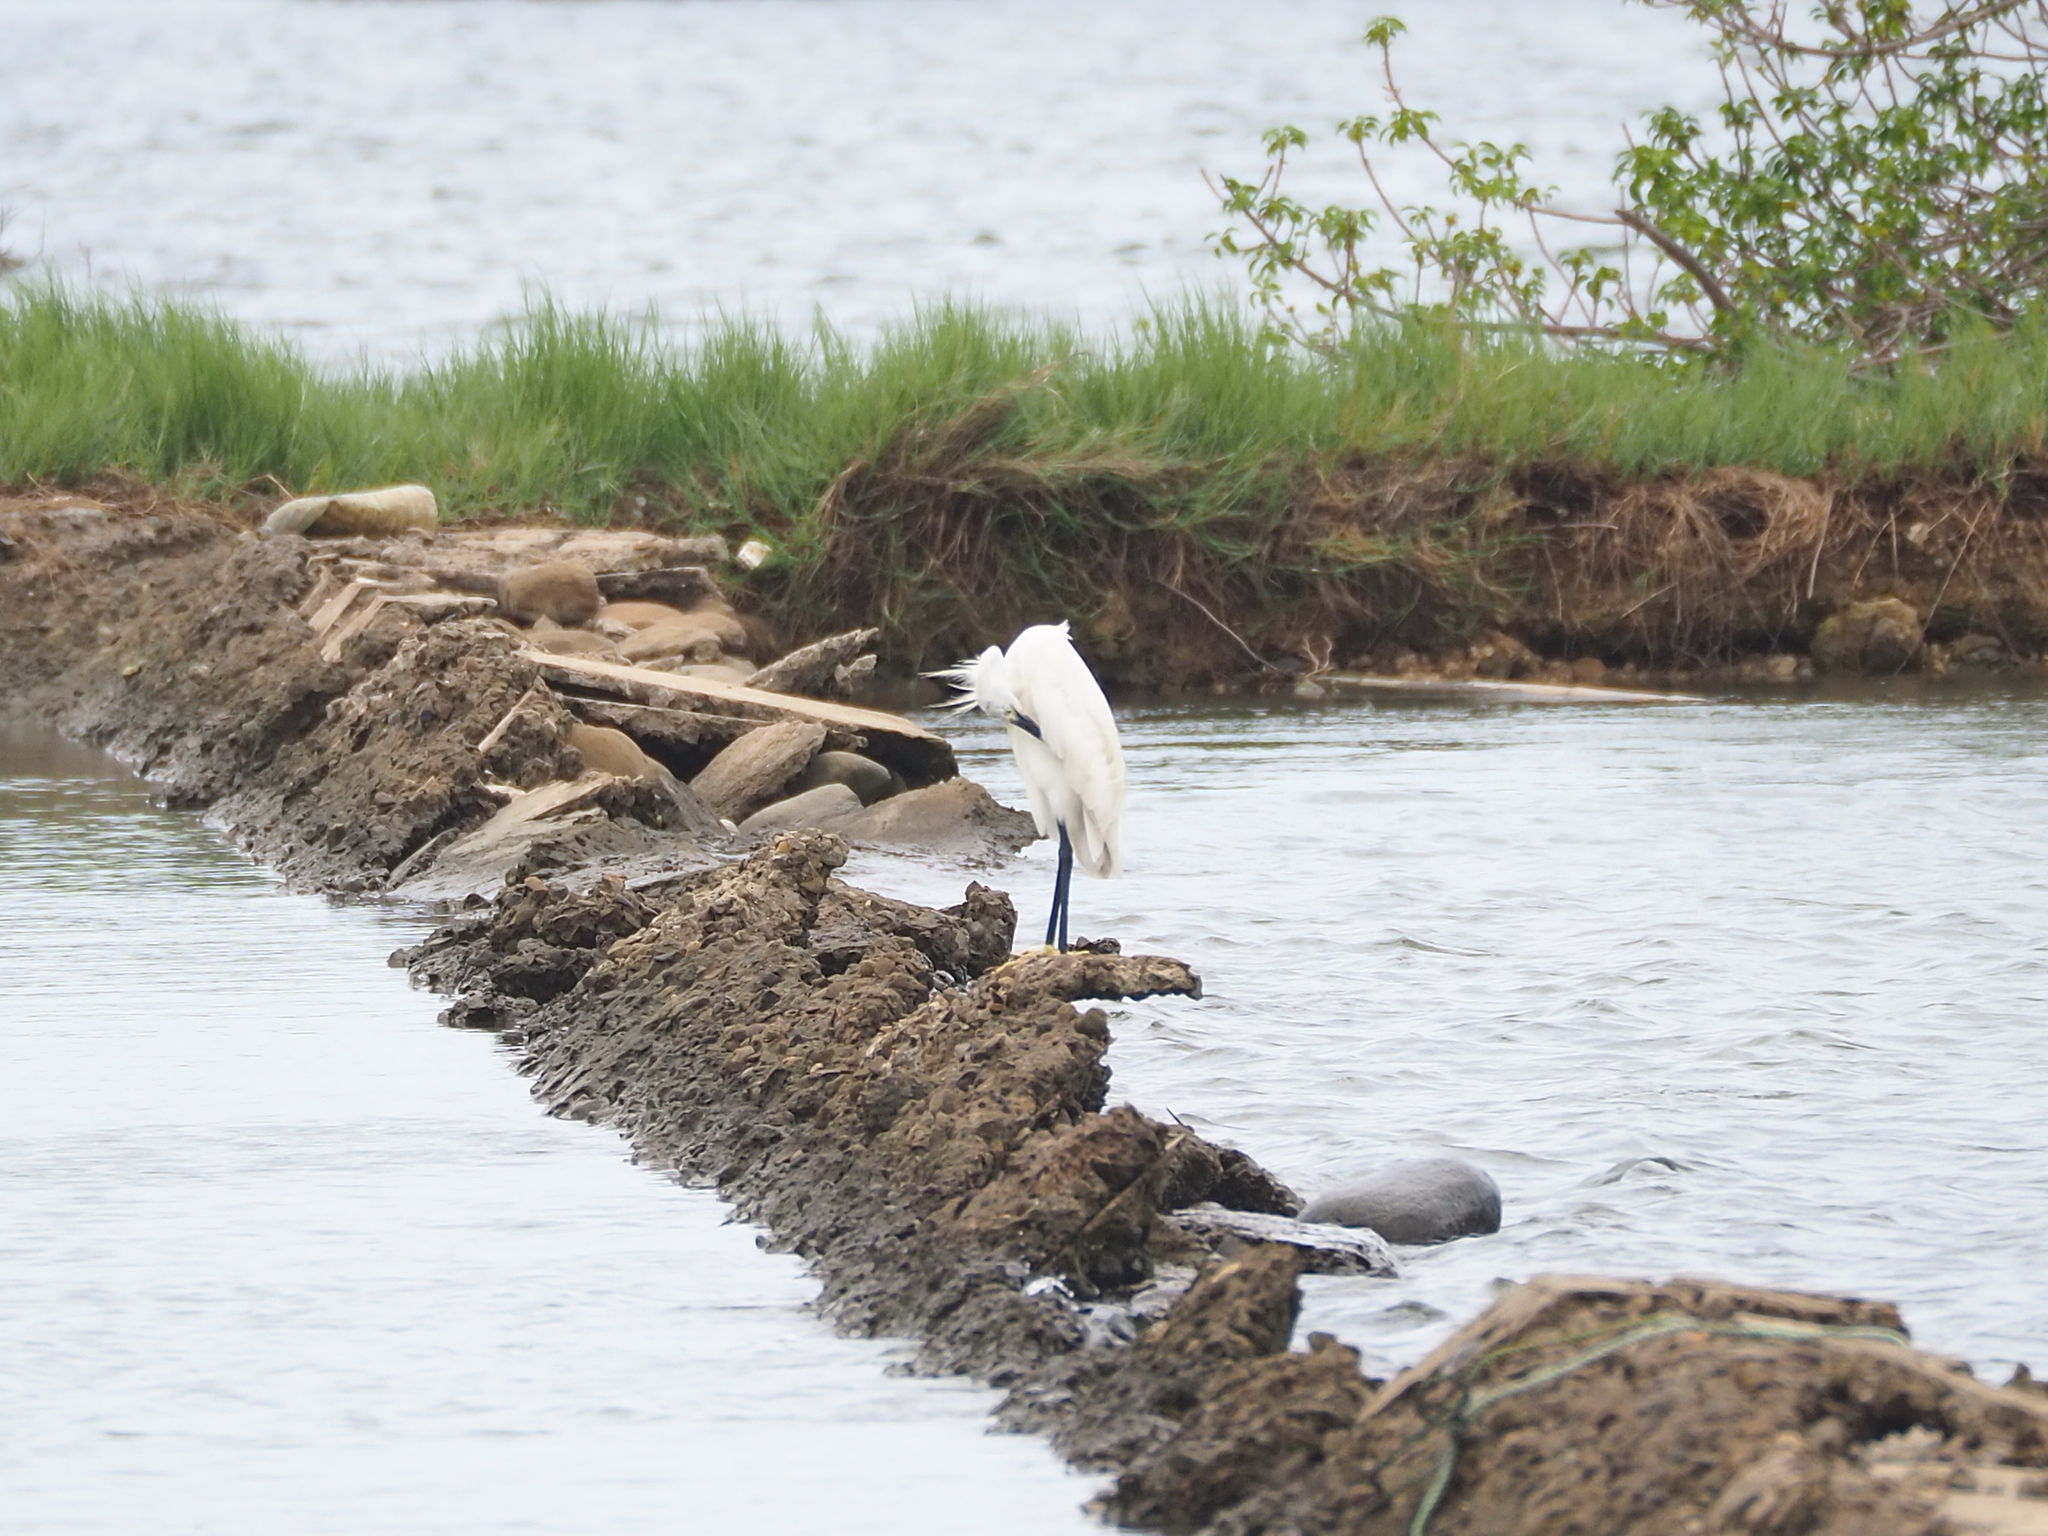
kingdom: Animalia
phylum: Chordata
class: Aves
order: Pelecaniformes
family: Ardeidae
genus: Egretta
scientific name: Egretta garzetta
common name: Little egret
